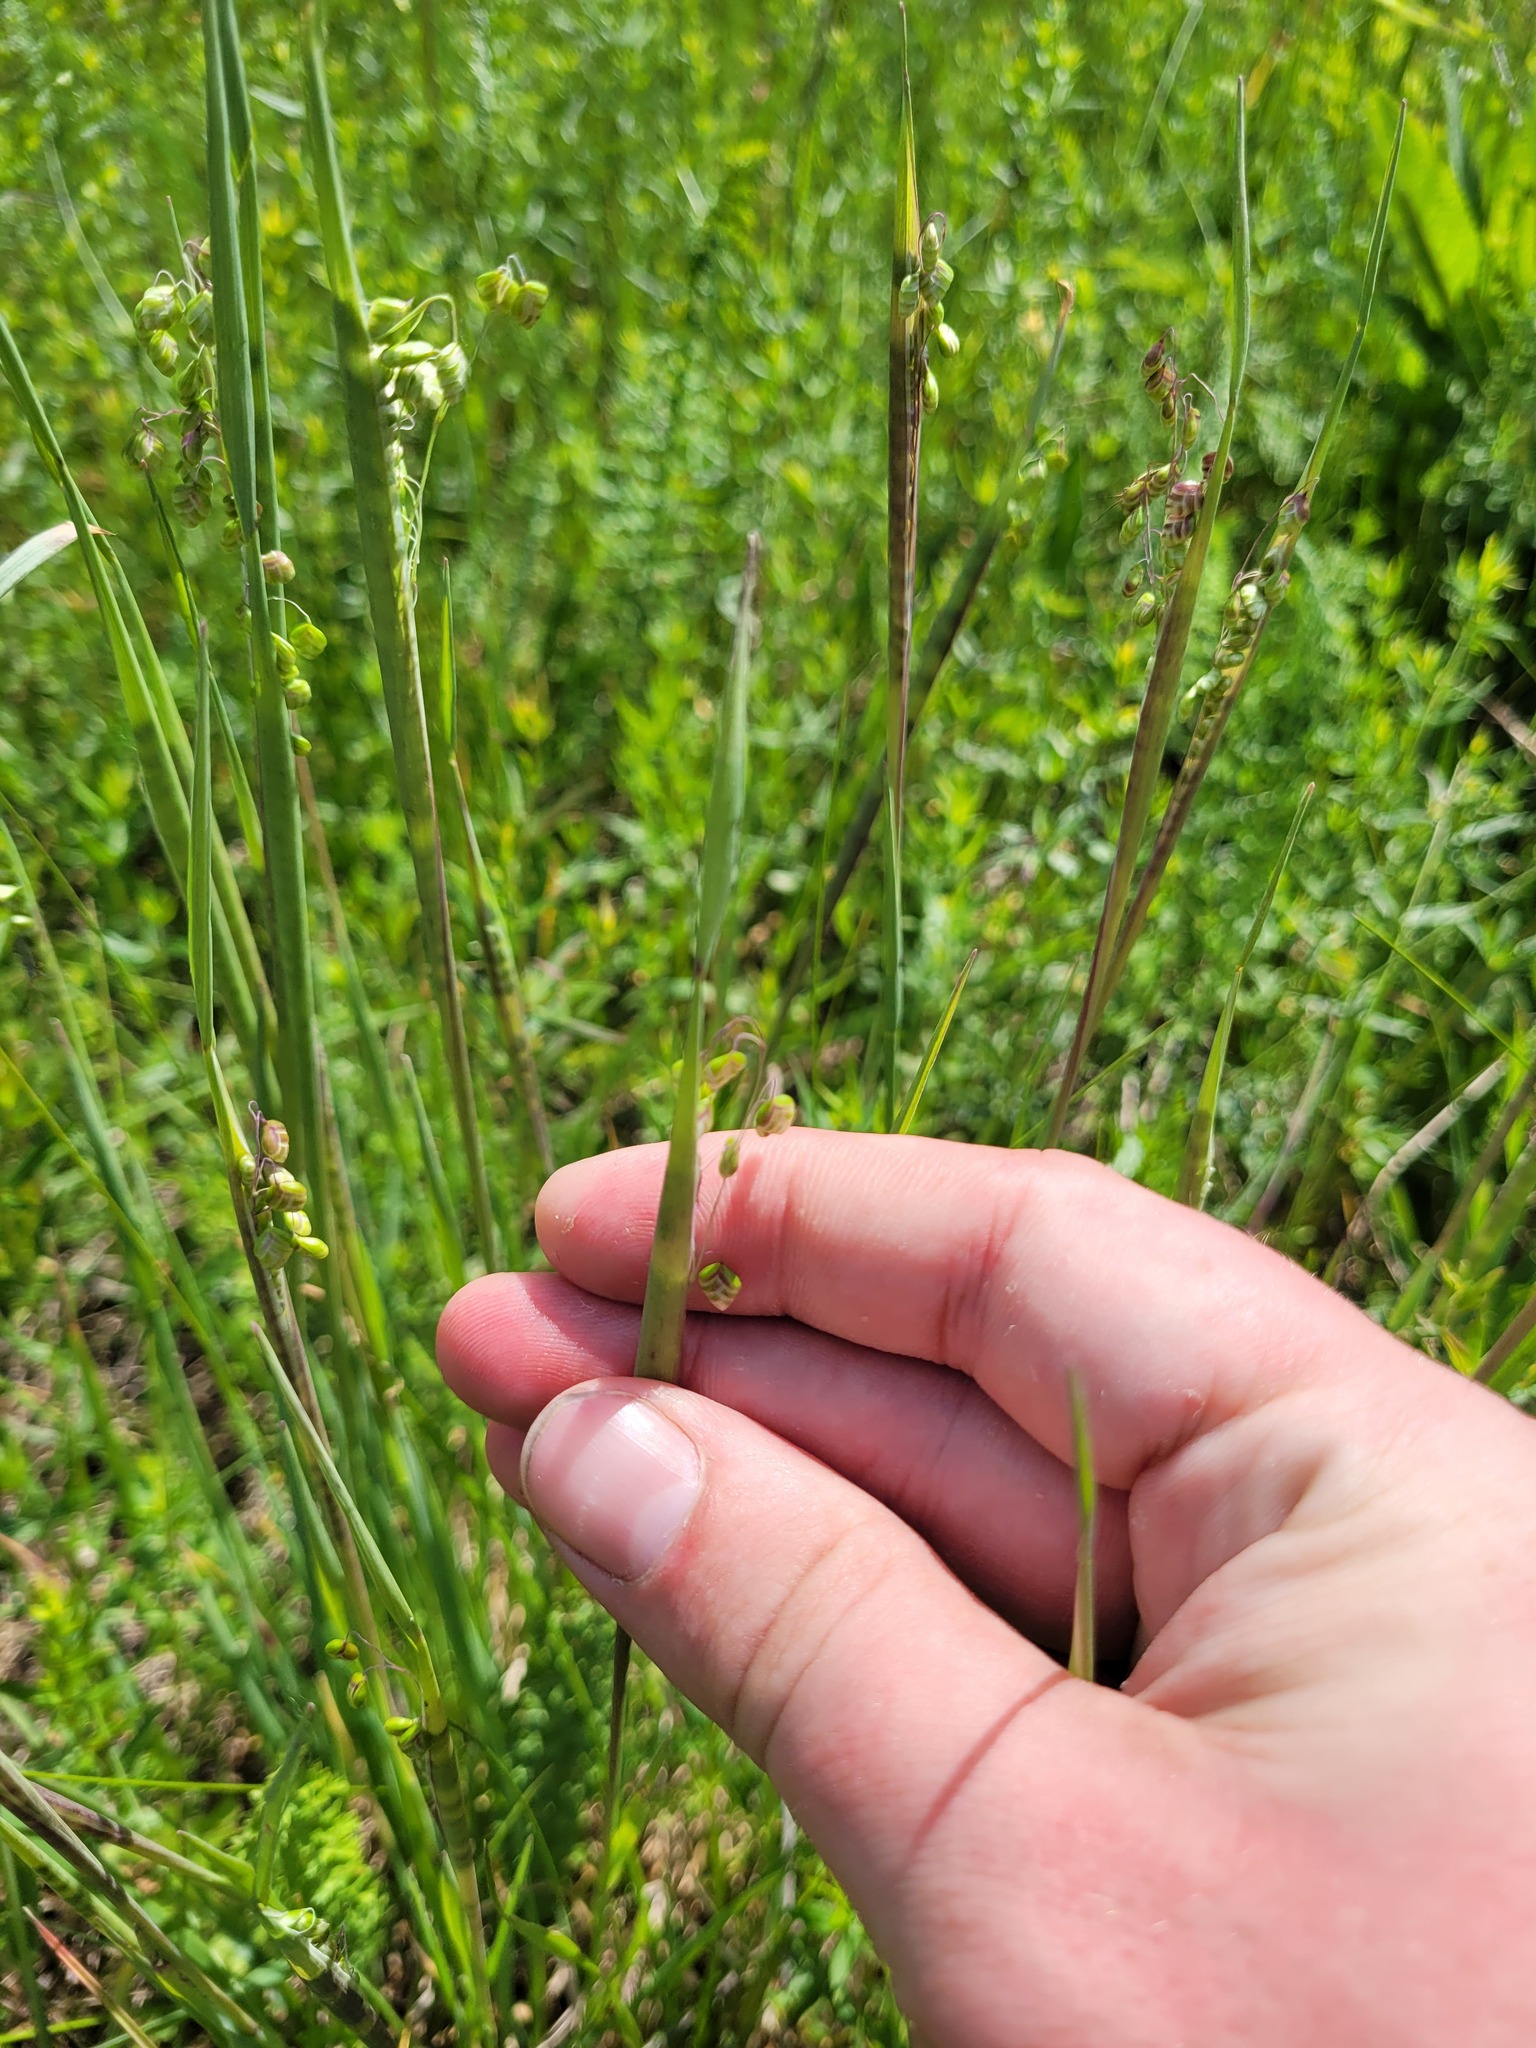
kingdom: Plantae
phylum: Tracheophyta
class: Liliopsida
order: Poales
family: Poaceae
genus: Briza
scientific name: Briza media
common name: Quaking grass
